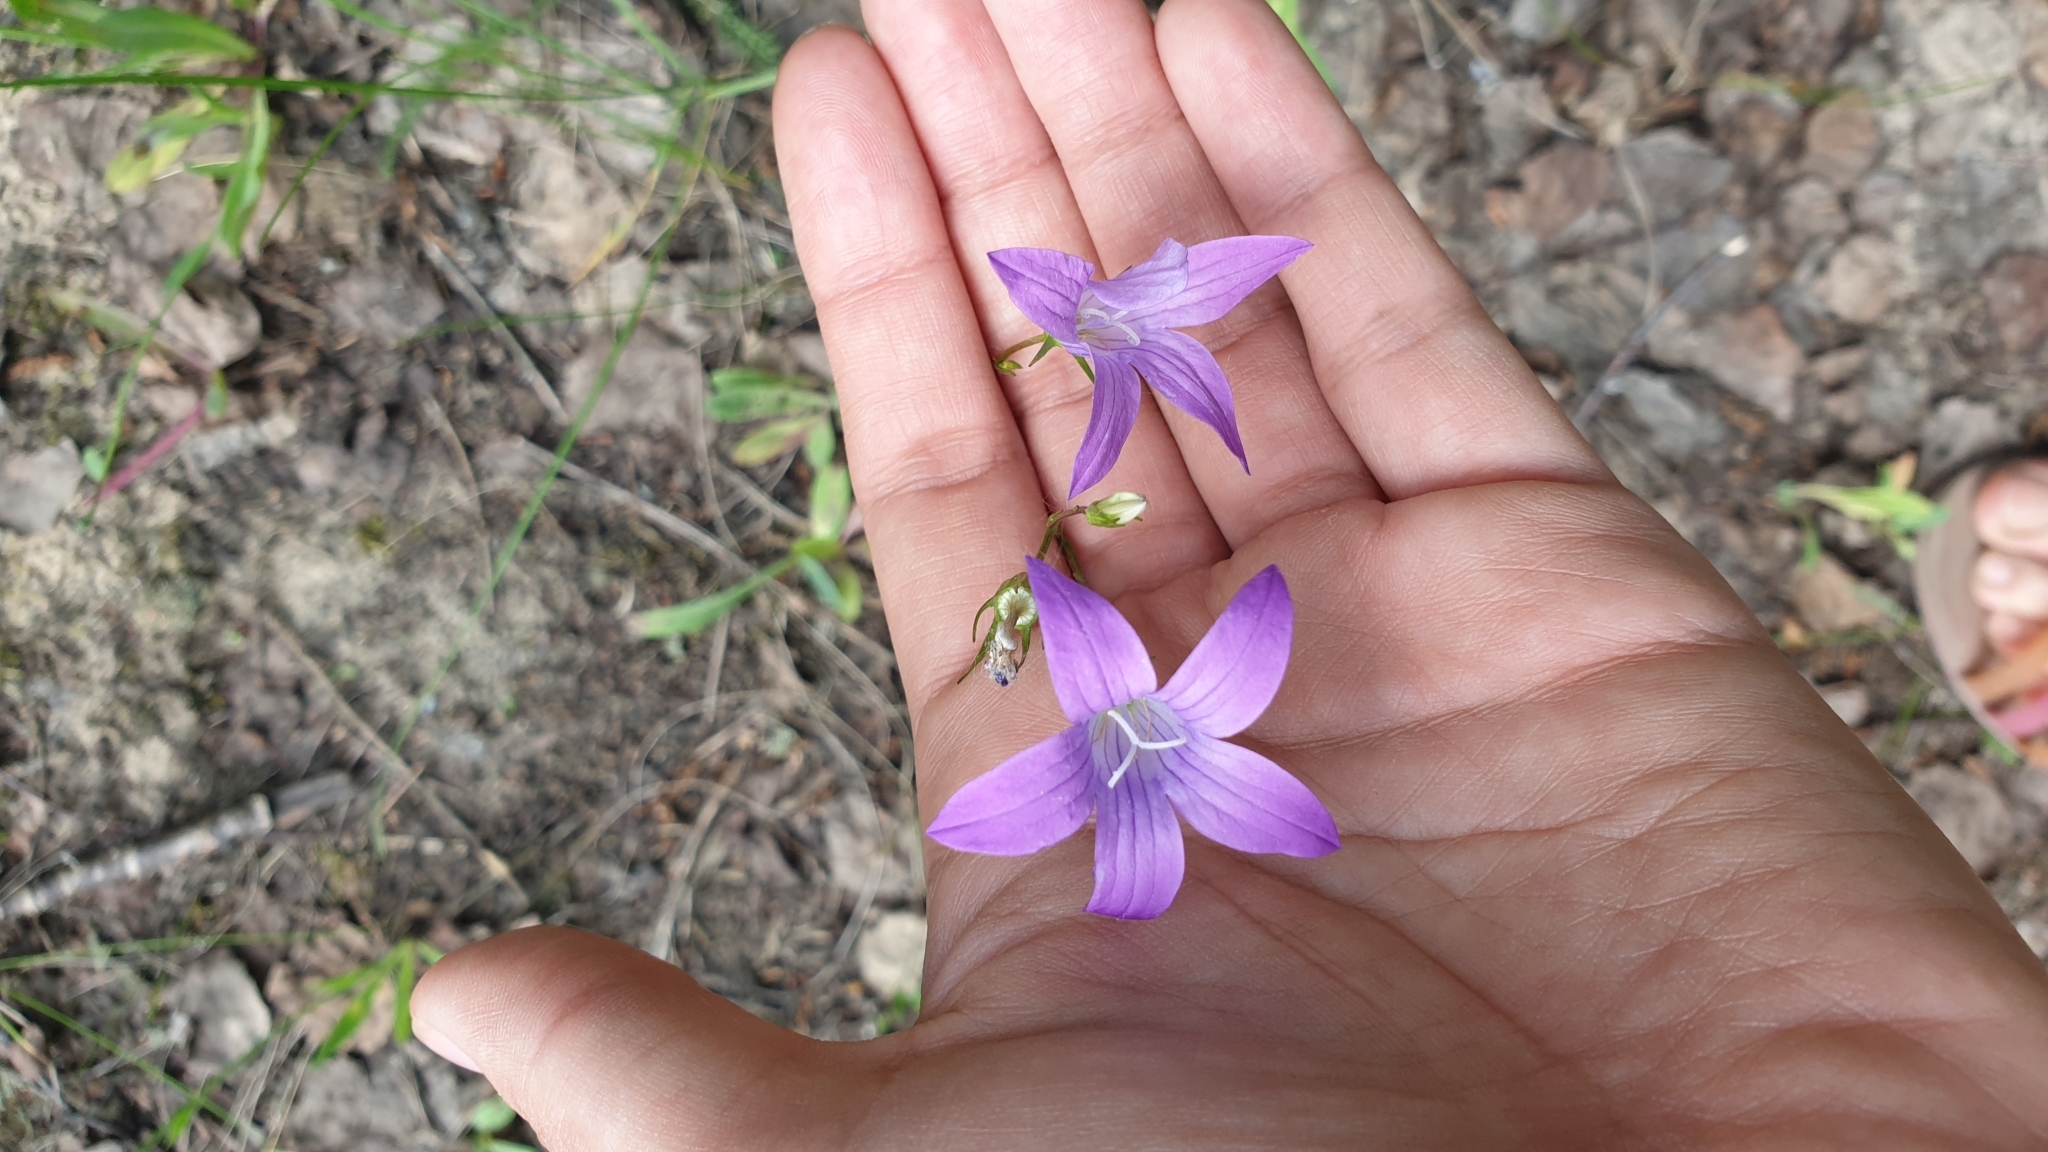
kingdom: Plantae
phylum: Tracheophyta
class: Magnoliopsida
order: Asterales
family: Campanulaceae
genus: Campanula
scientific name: Campanula patula
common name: Spreading bellflower
